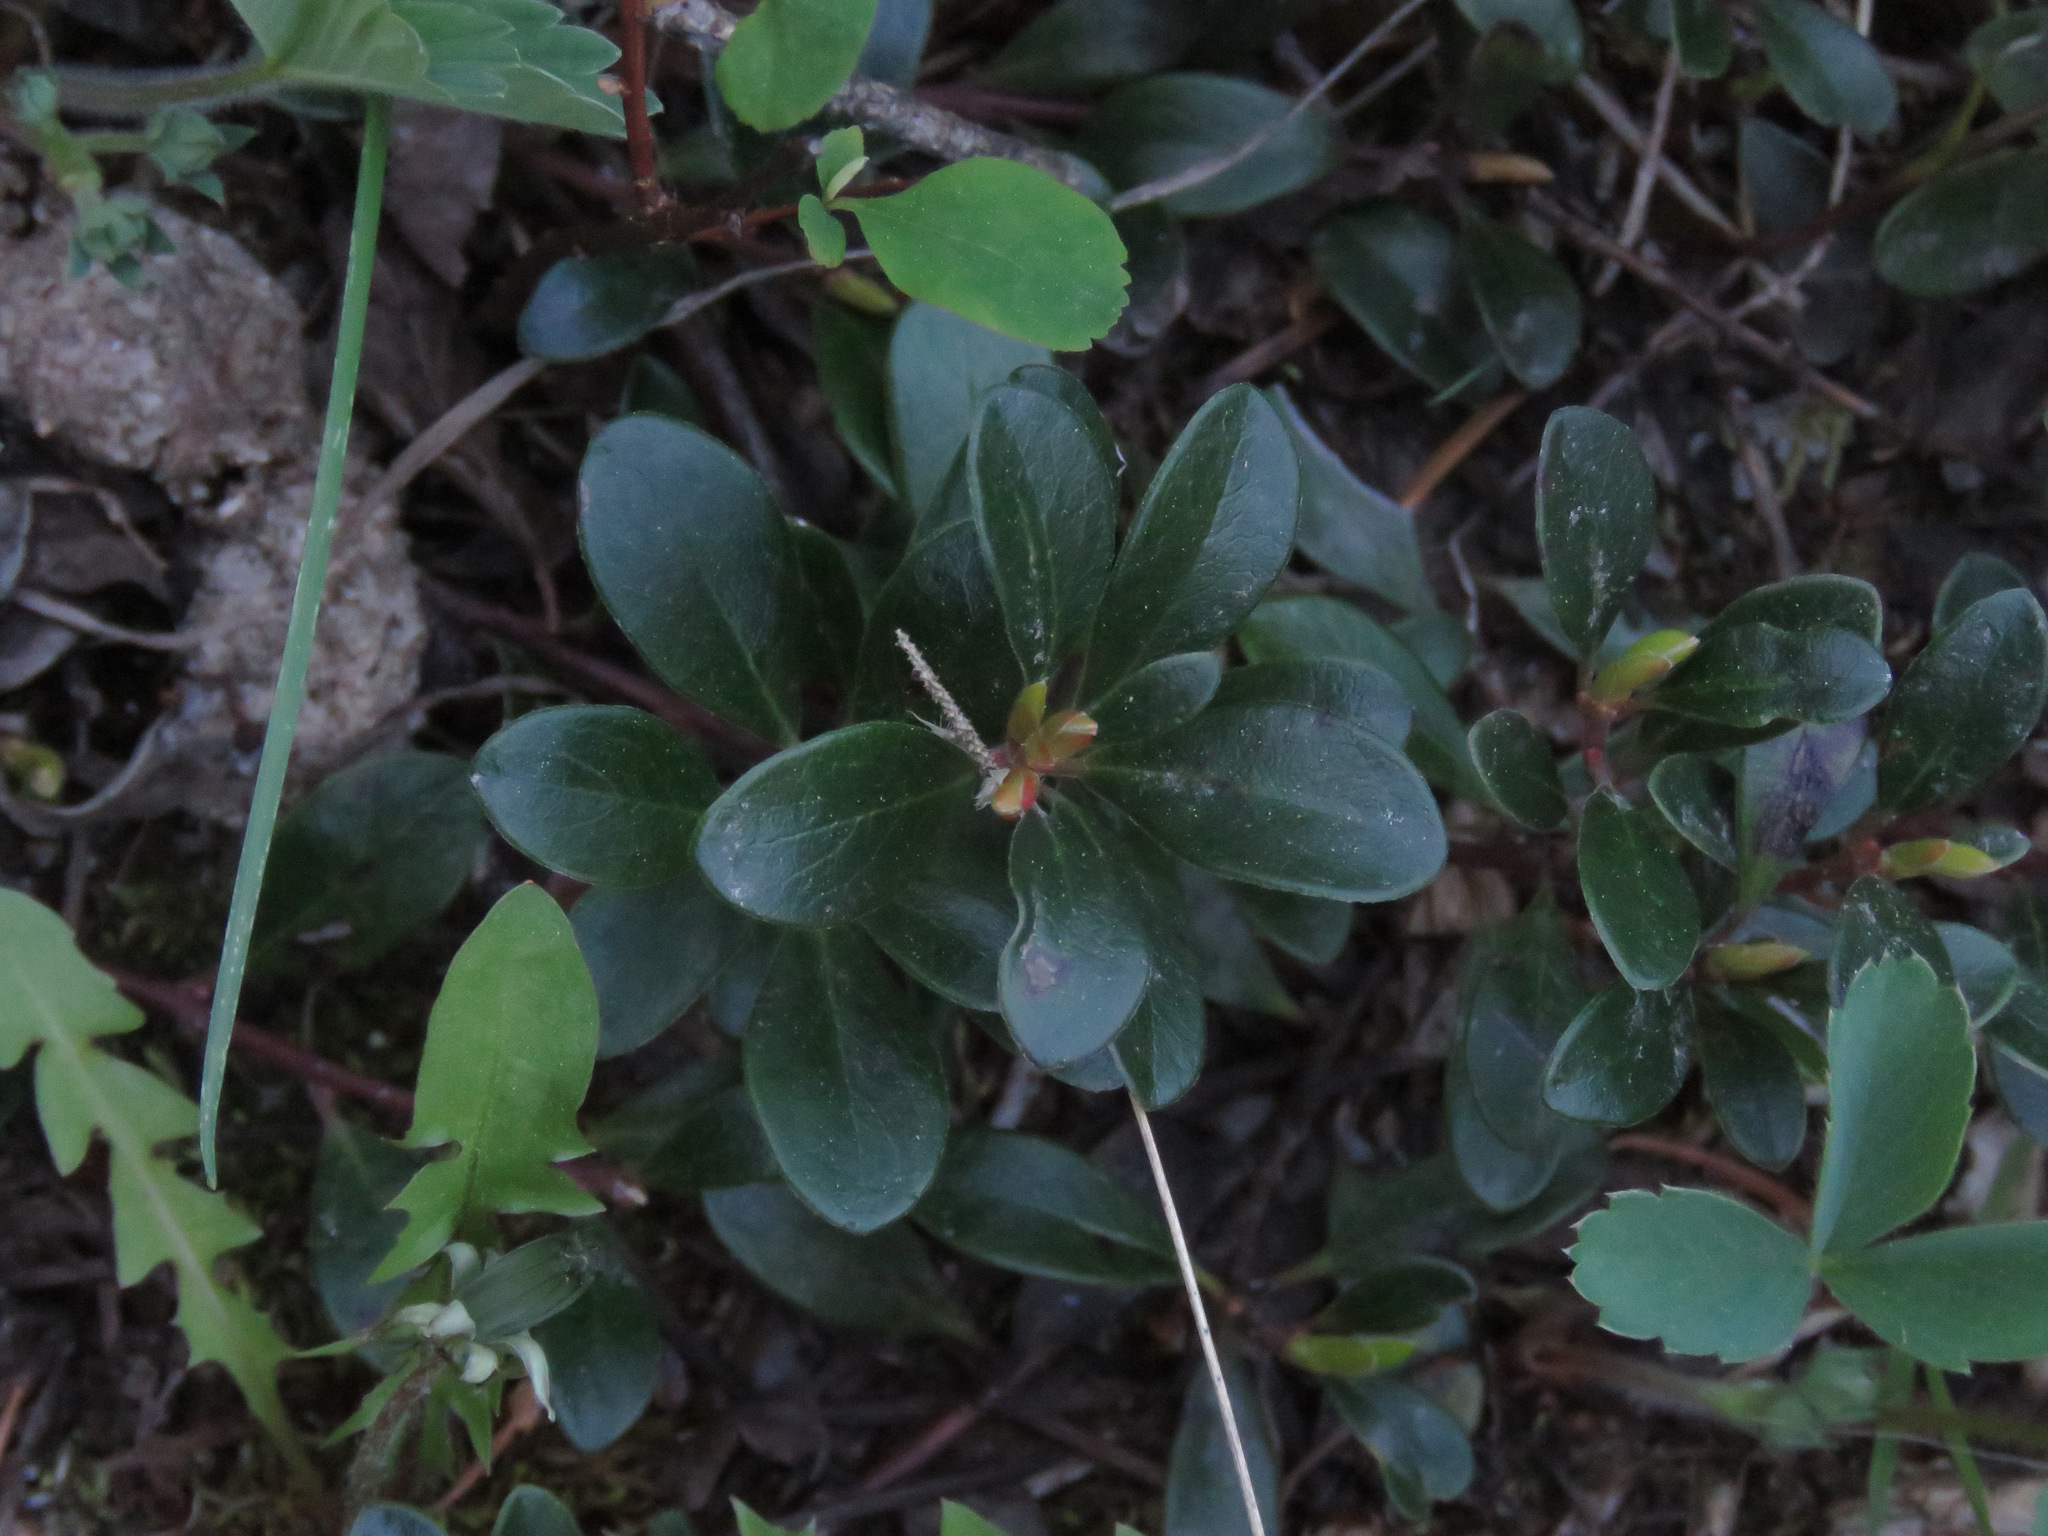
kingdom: Plantae
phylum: Tracheophyta
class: Magnoliopsida
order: Ericales
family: Ericaceae
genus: Arctostaphylos
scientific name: Arctostaphylos uva-ursi
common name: Bearberry
